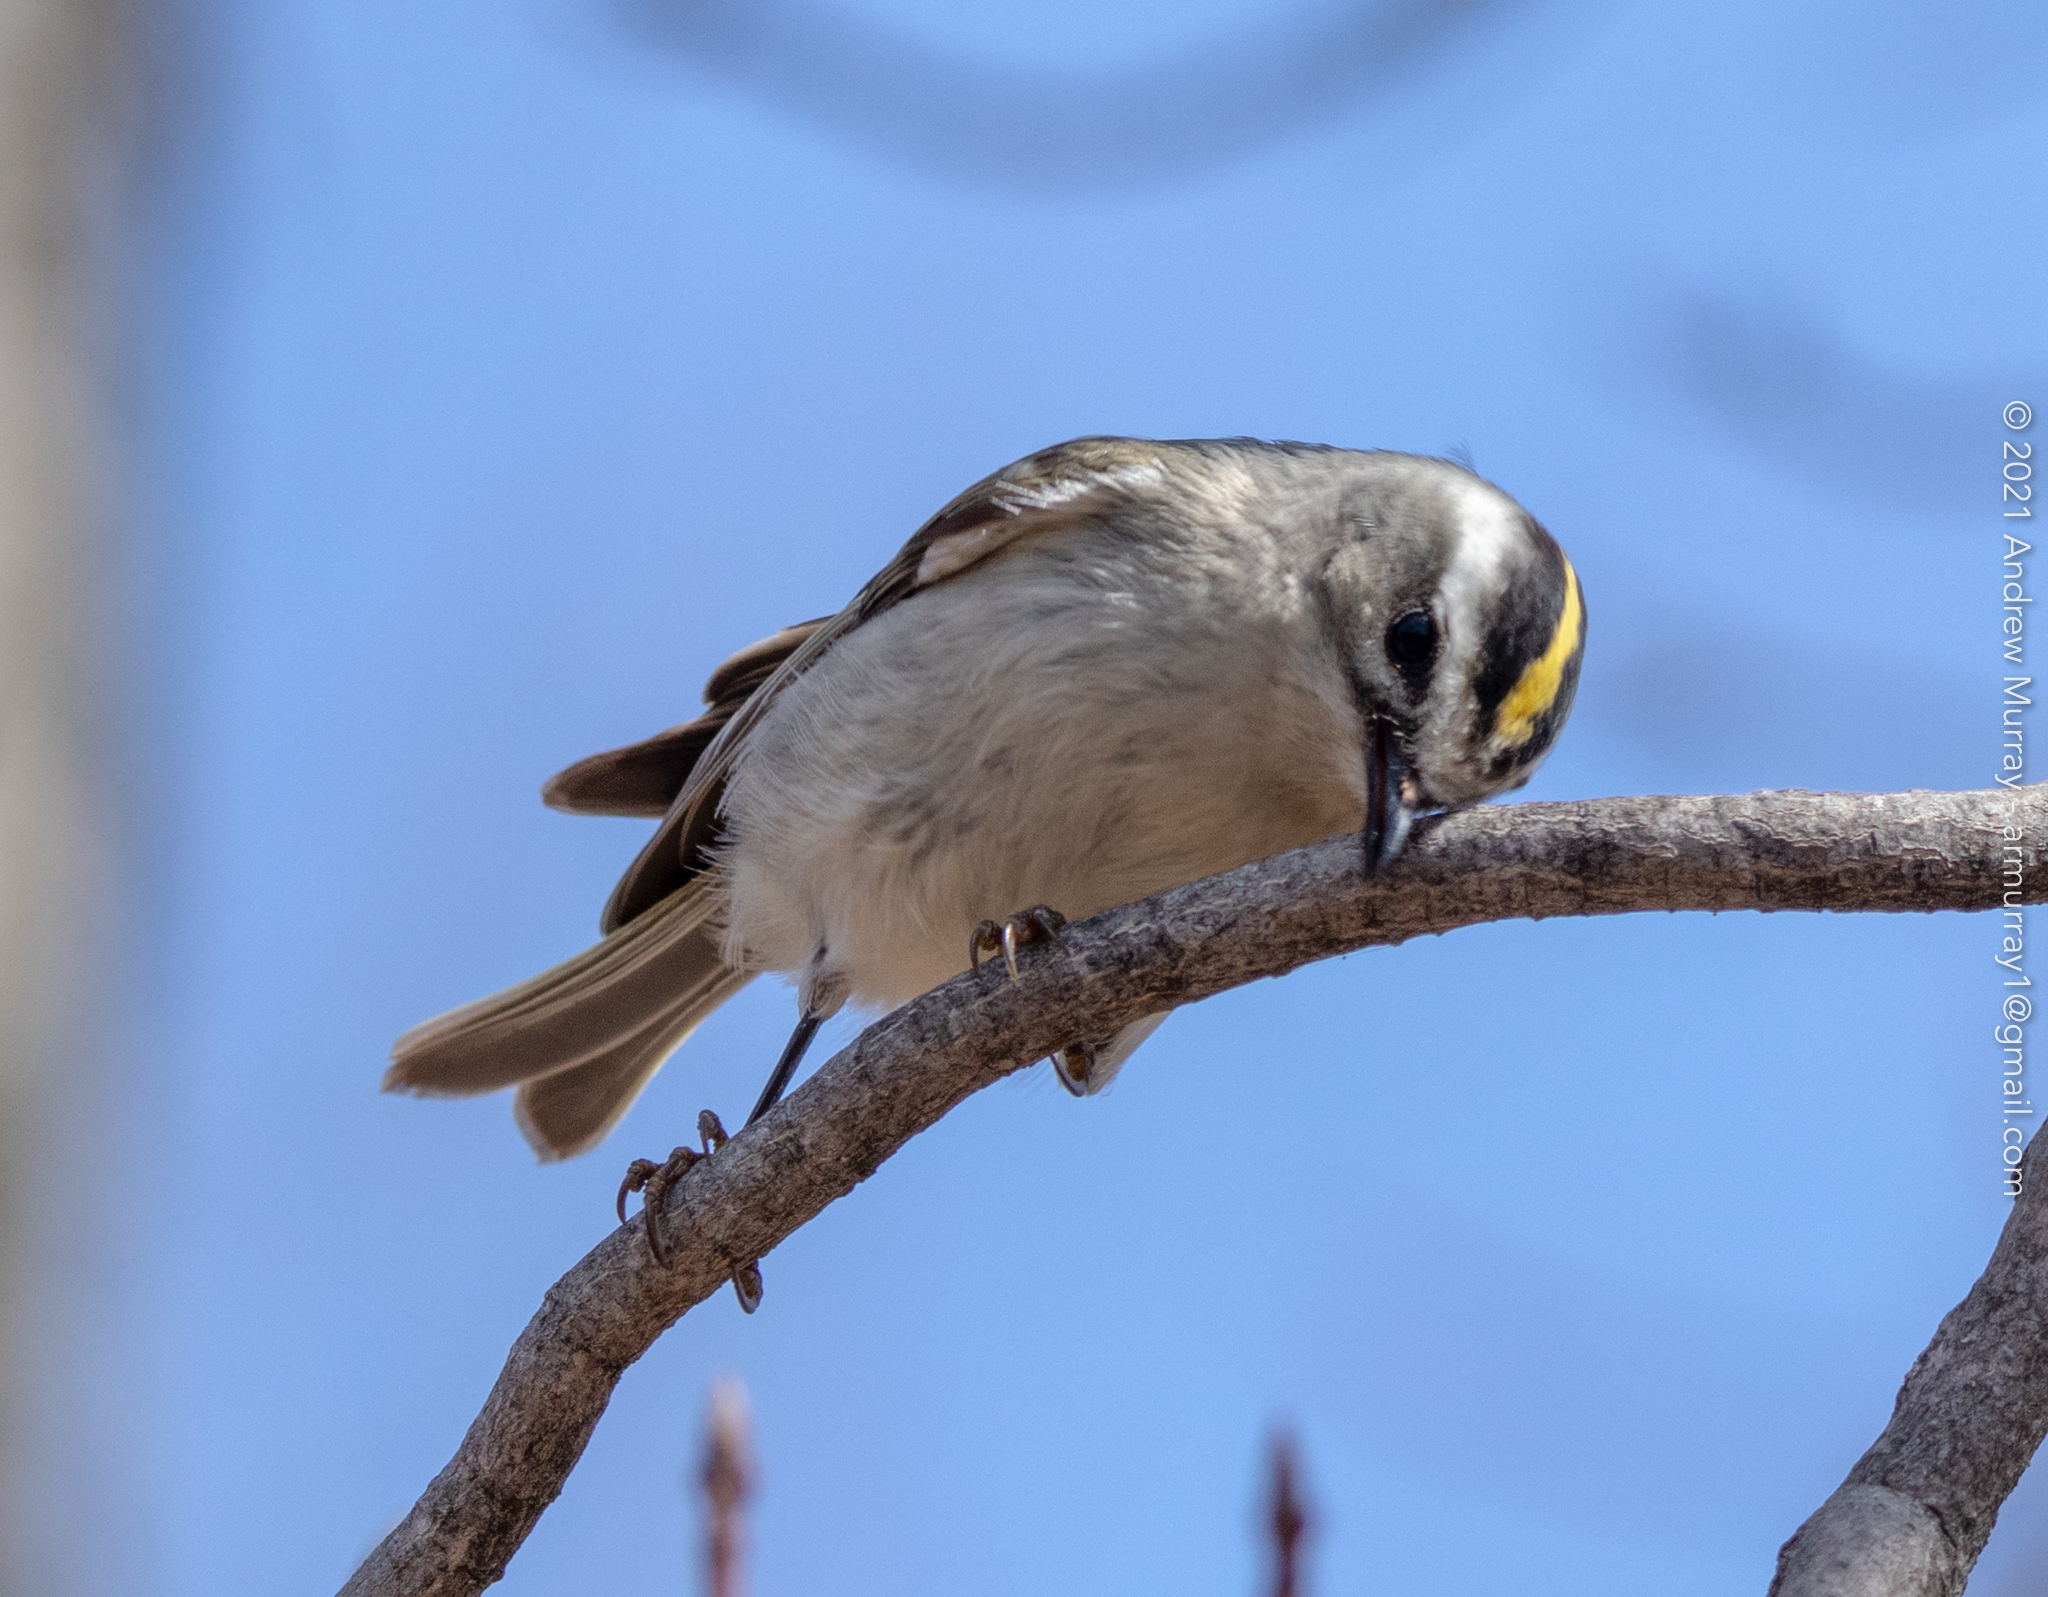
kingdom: Animalia
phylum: Chordata
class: Aves
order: Passeriformes
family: Regulidae
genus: Regulus
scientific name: Regulus satrapa
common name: Golden-crowned kinglet
